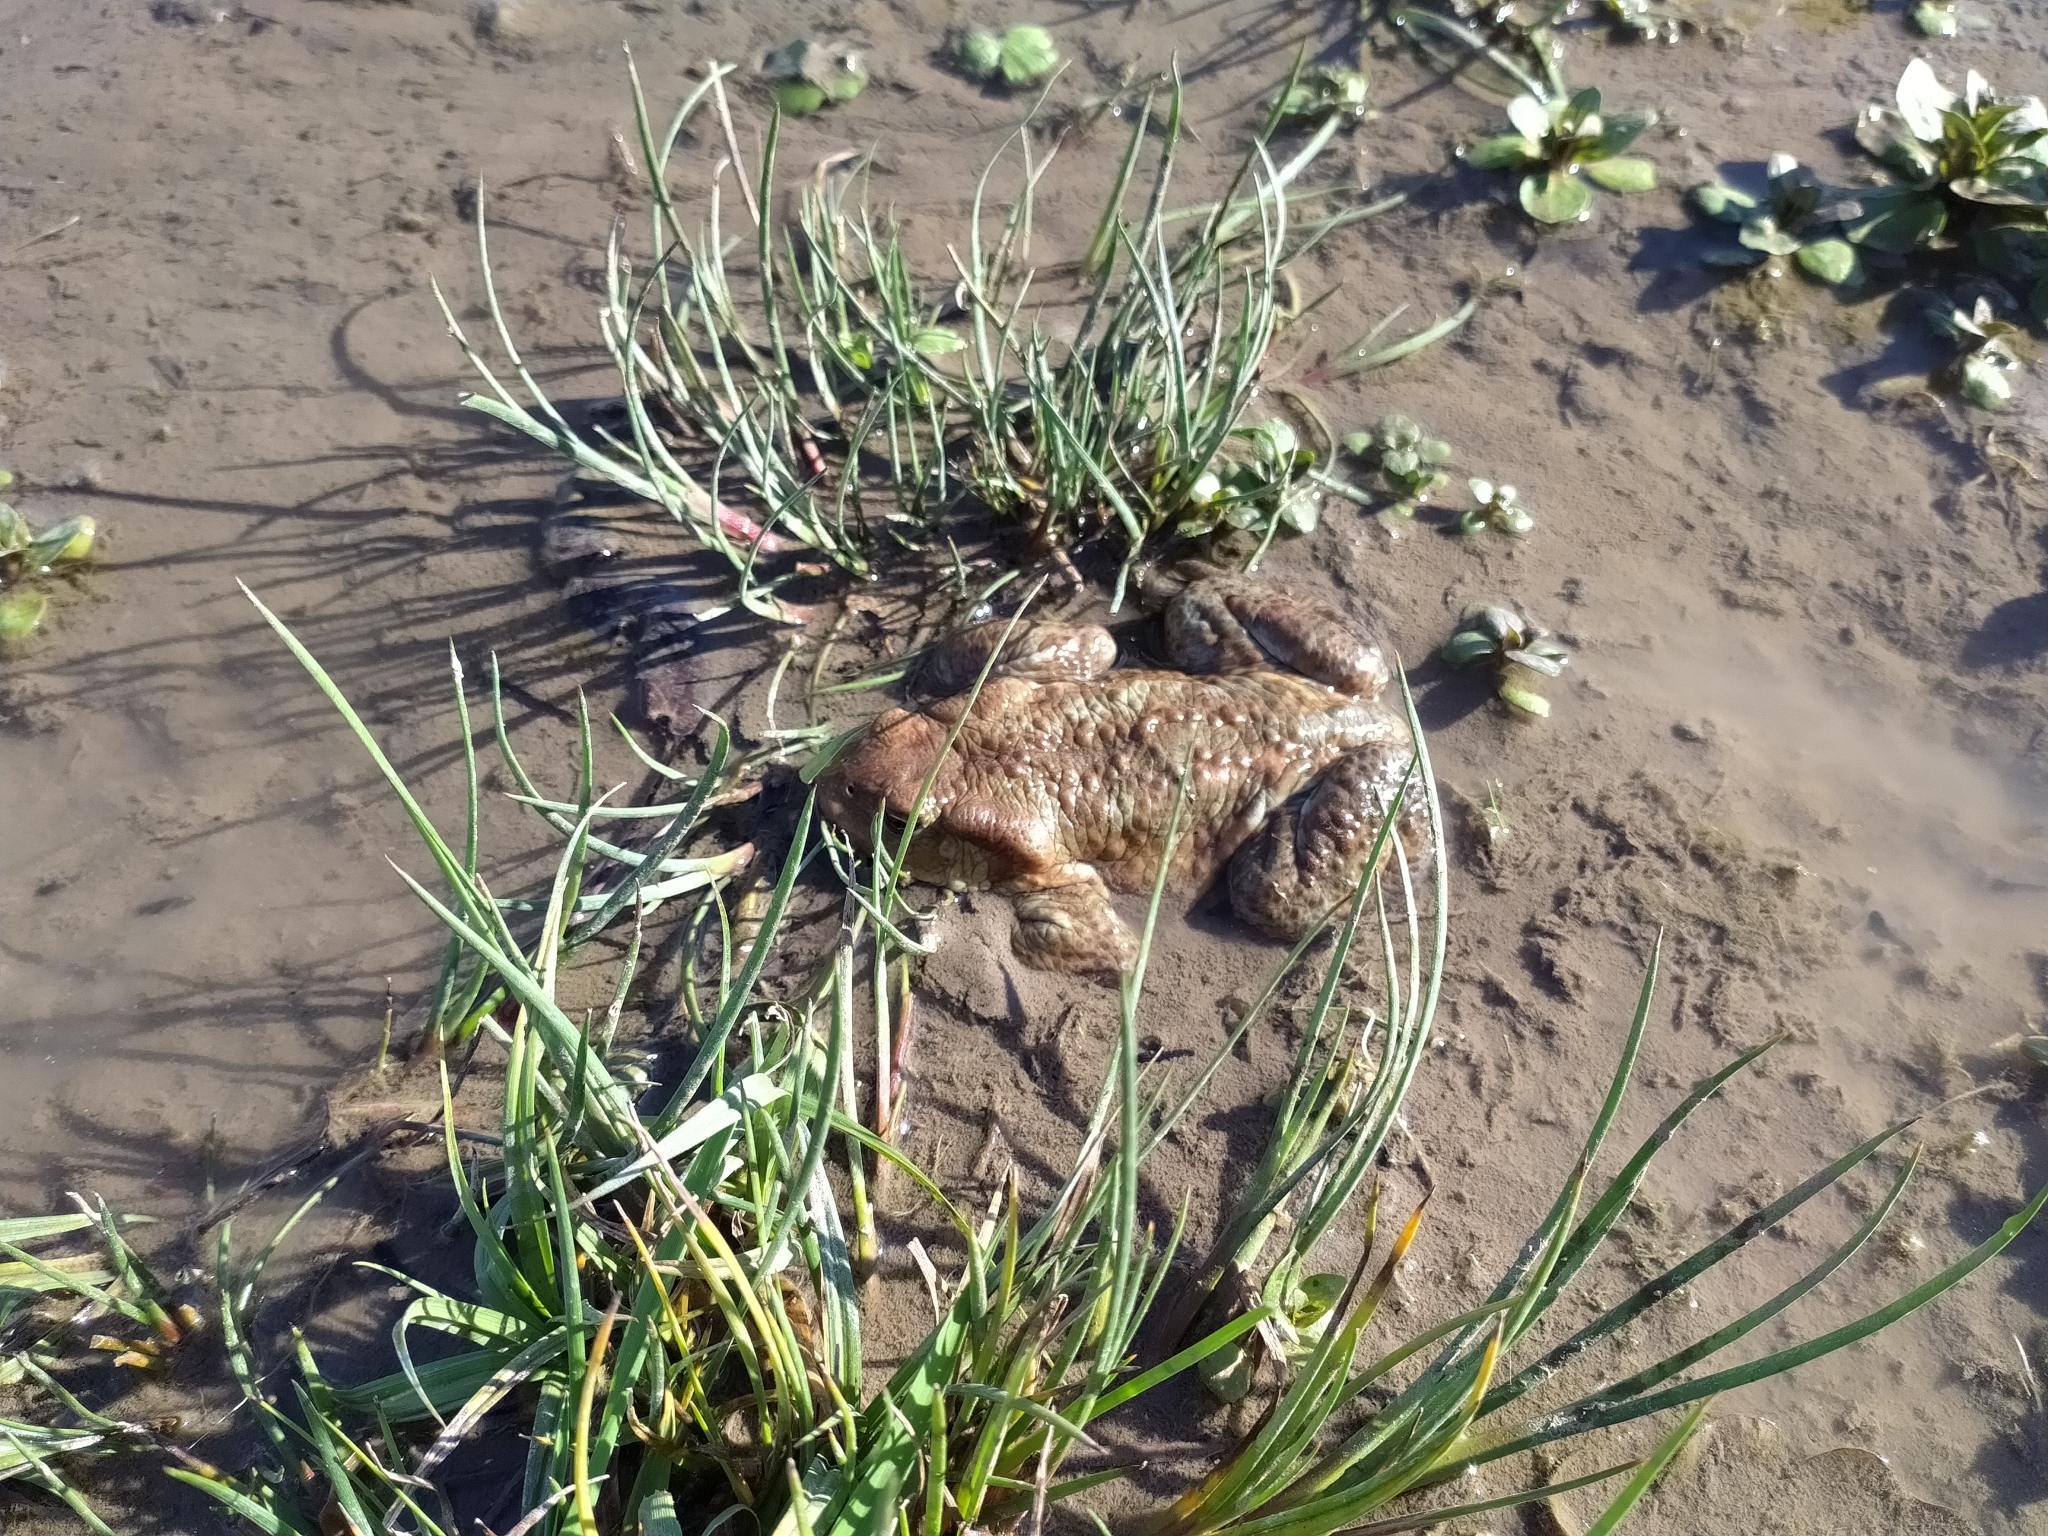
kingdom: Animalia
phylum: Chordata
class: Amphibia
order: Anura
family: Bufonidae
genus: Bufo
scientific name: Bufo bufo
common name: Common toad
